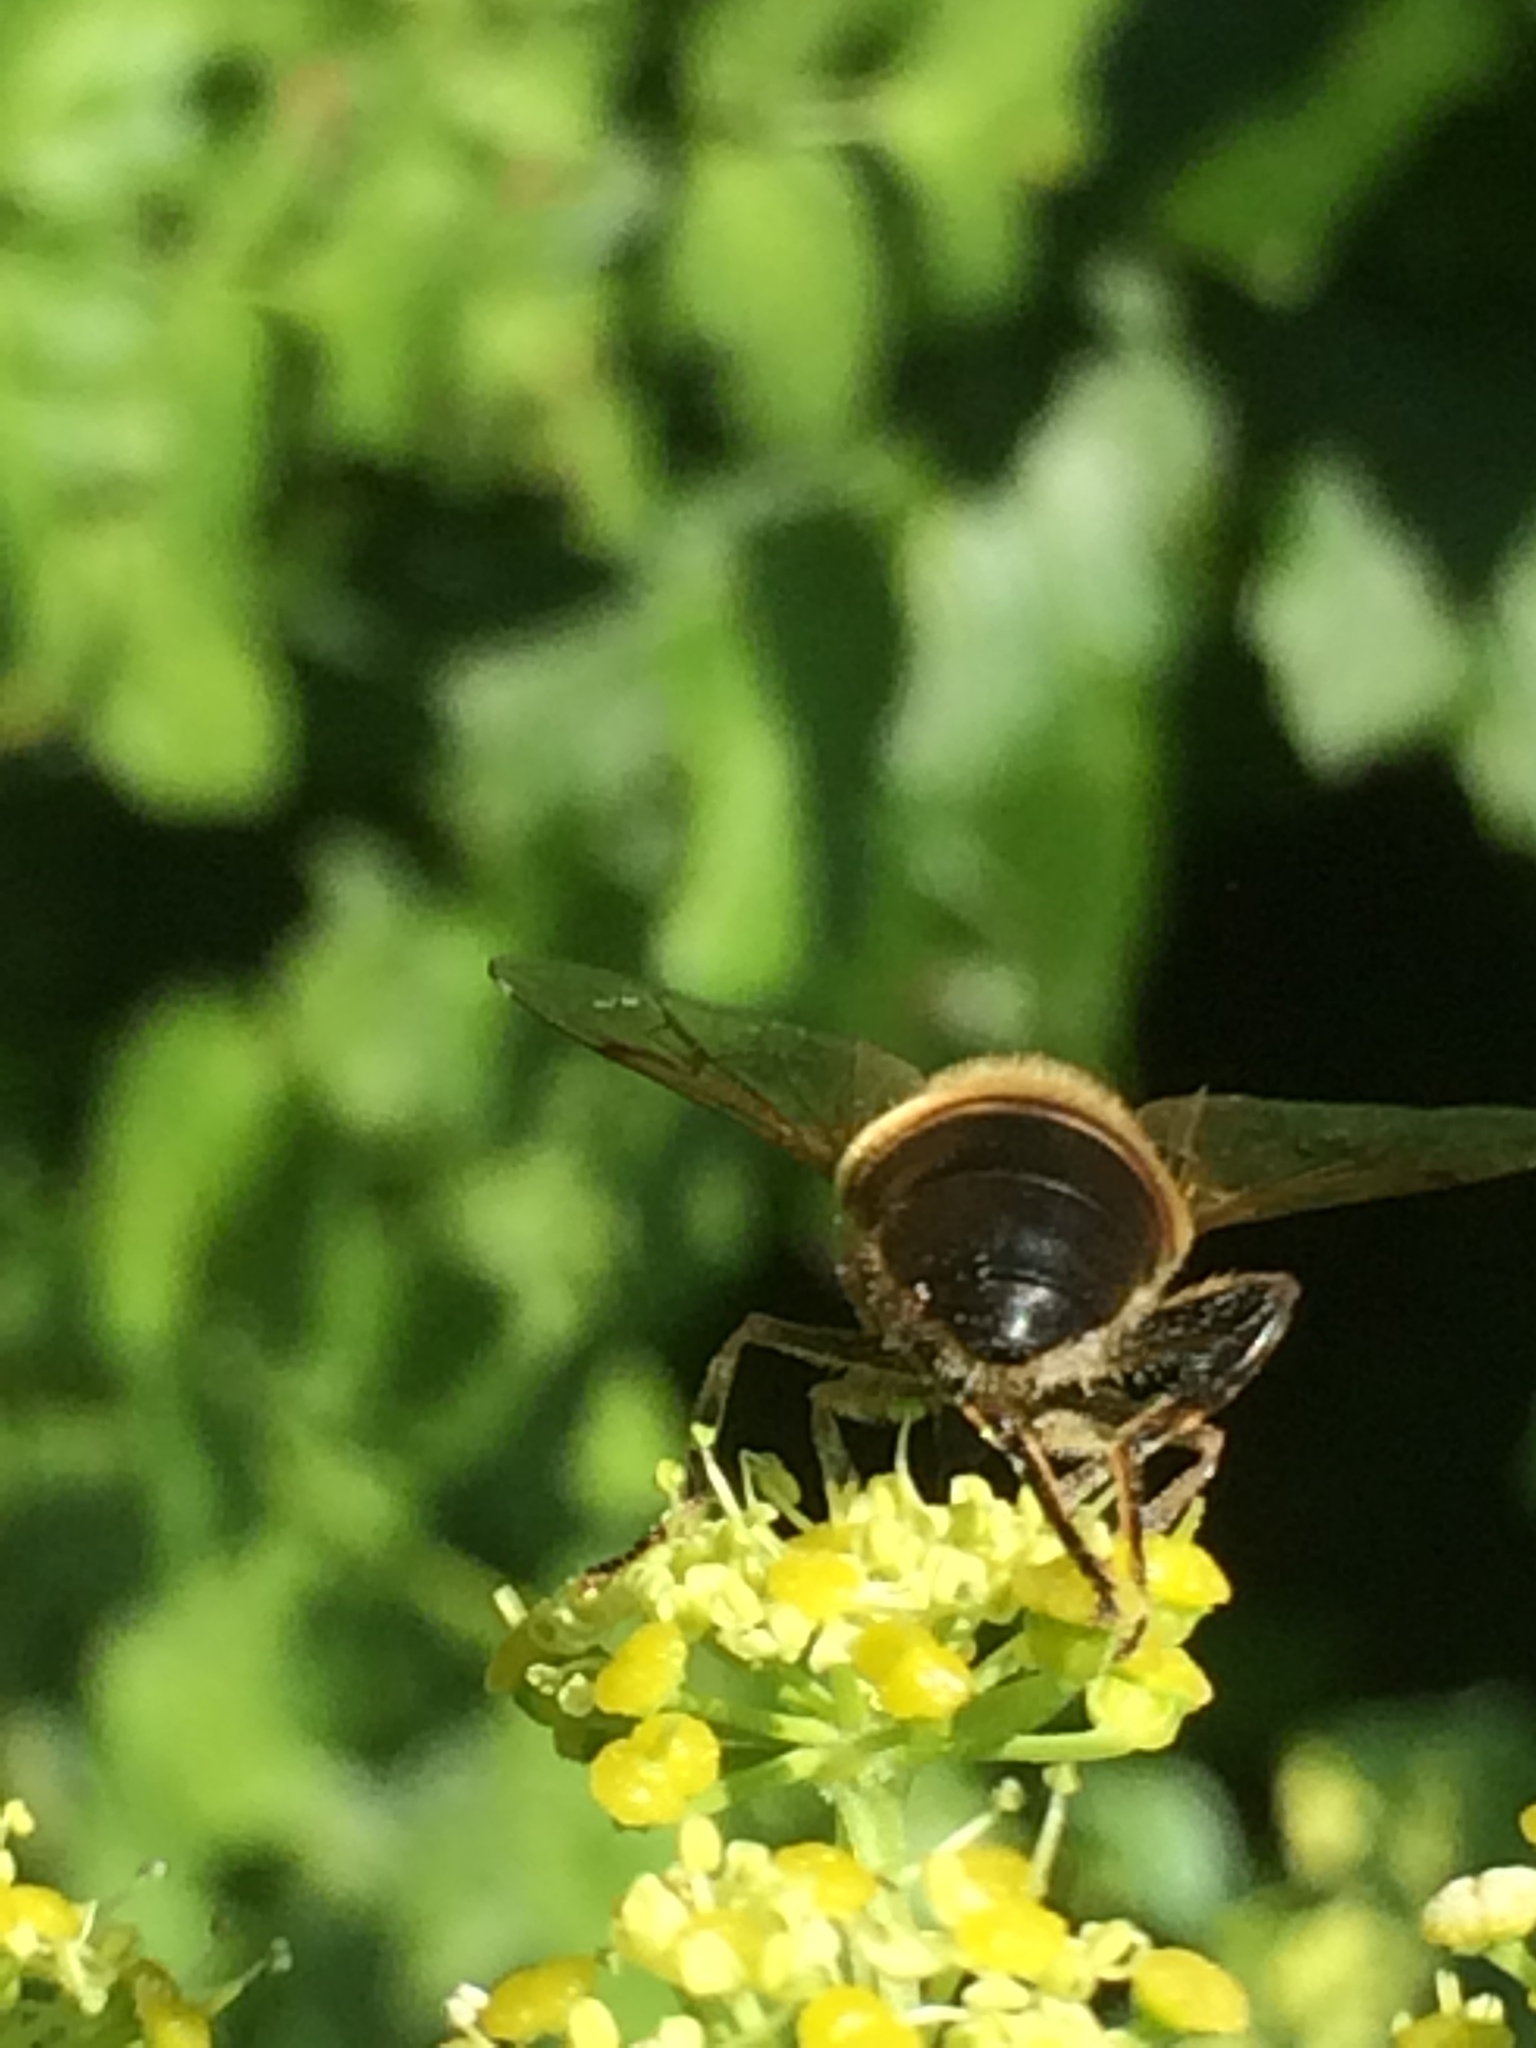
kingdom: Animalia
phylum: Arthropoda
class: Insecta
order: Diptera
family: Syrphidae
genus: Eristalis
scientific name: Eristalis tenax
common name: Drone fly
